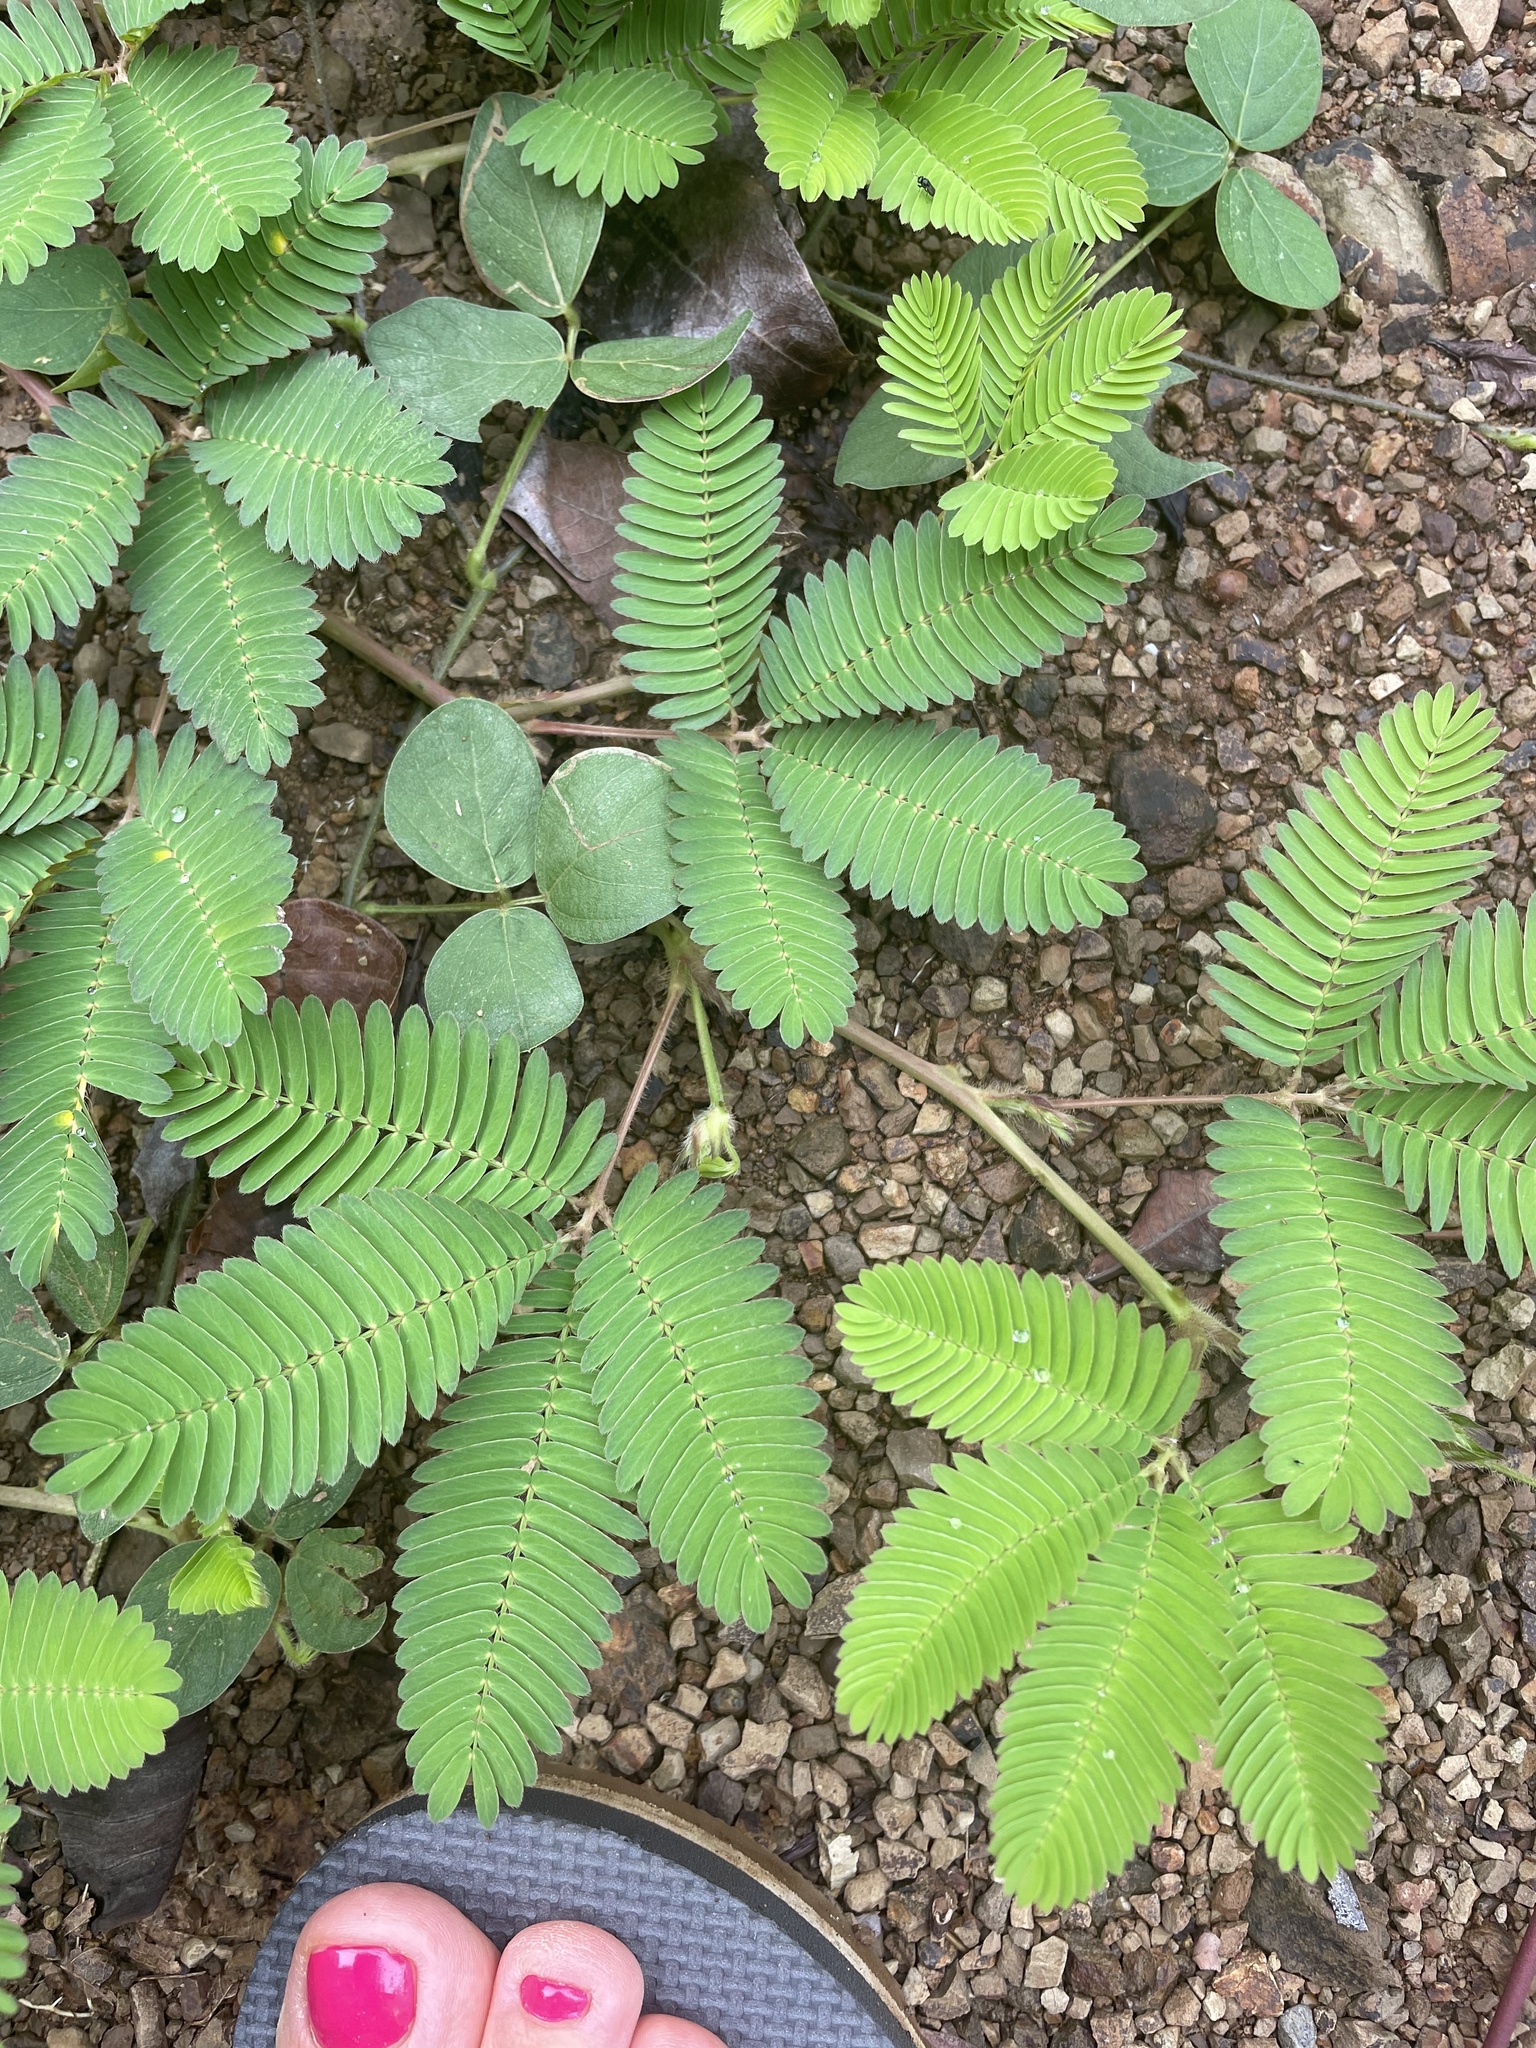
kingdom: Plantae
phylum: Tracheophyta
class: Magnoliopsida
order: Fabales
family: Fabaceae
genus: Mimosa
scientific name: Mimosa pudica
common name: Sensitive plant
